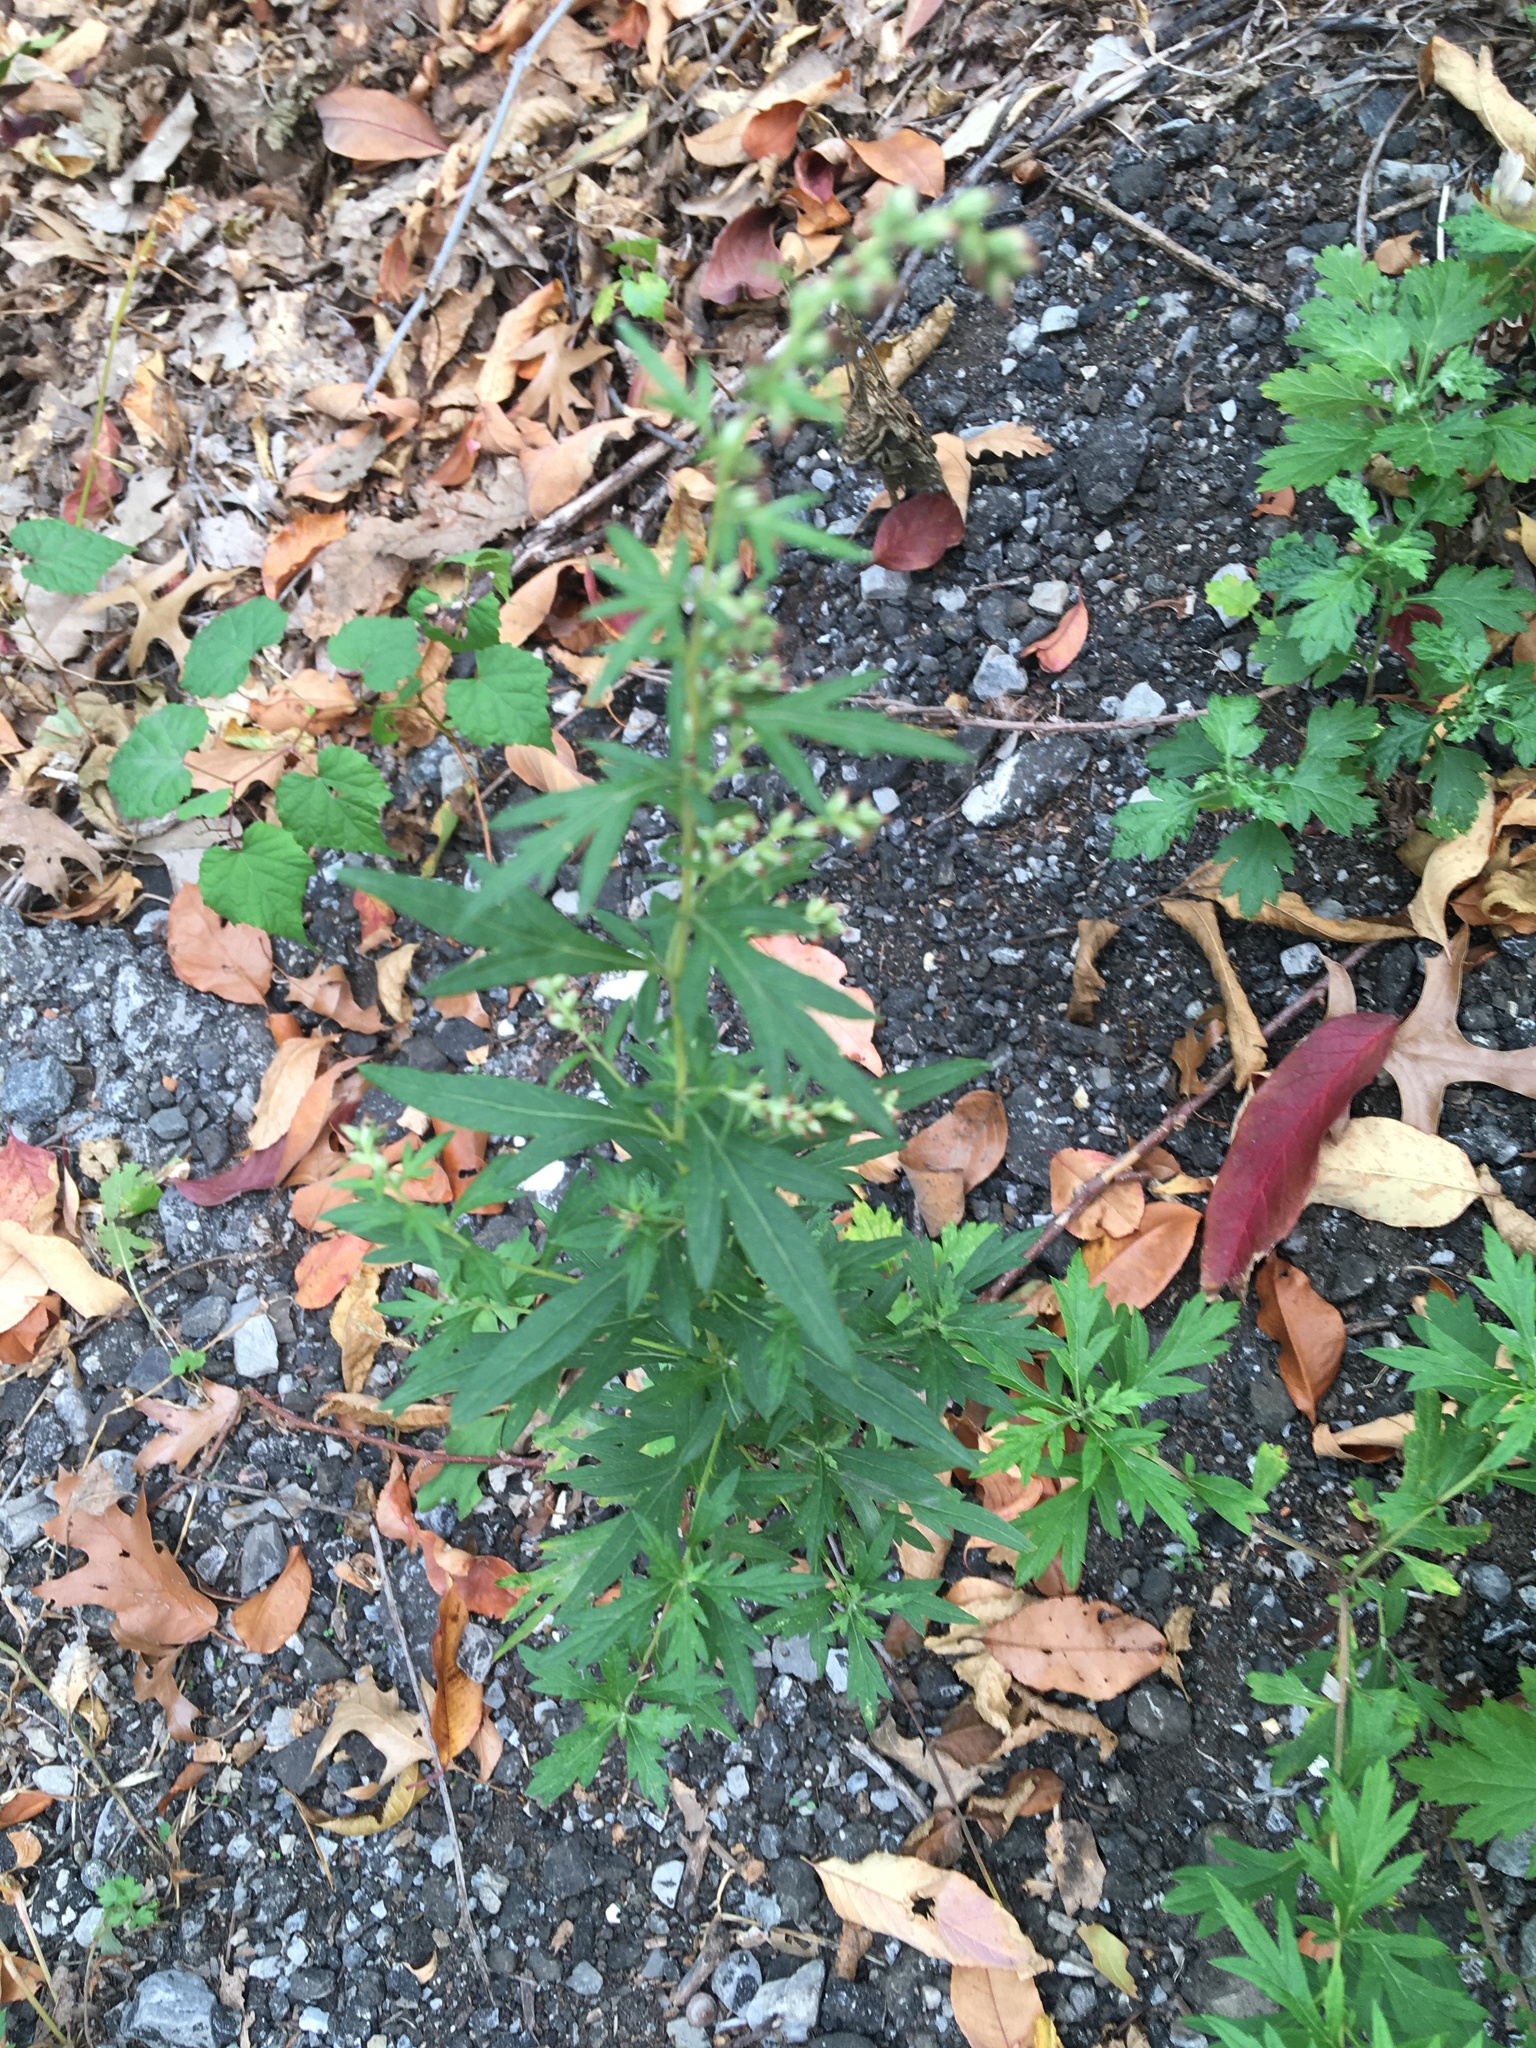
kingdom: Plantae
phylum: Tracheophyta
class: Magnoliopsida
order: Asterales
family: Asteraceae
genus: Artemisia
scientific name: Artemisia vulgaris
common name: Mugwort
